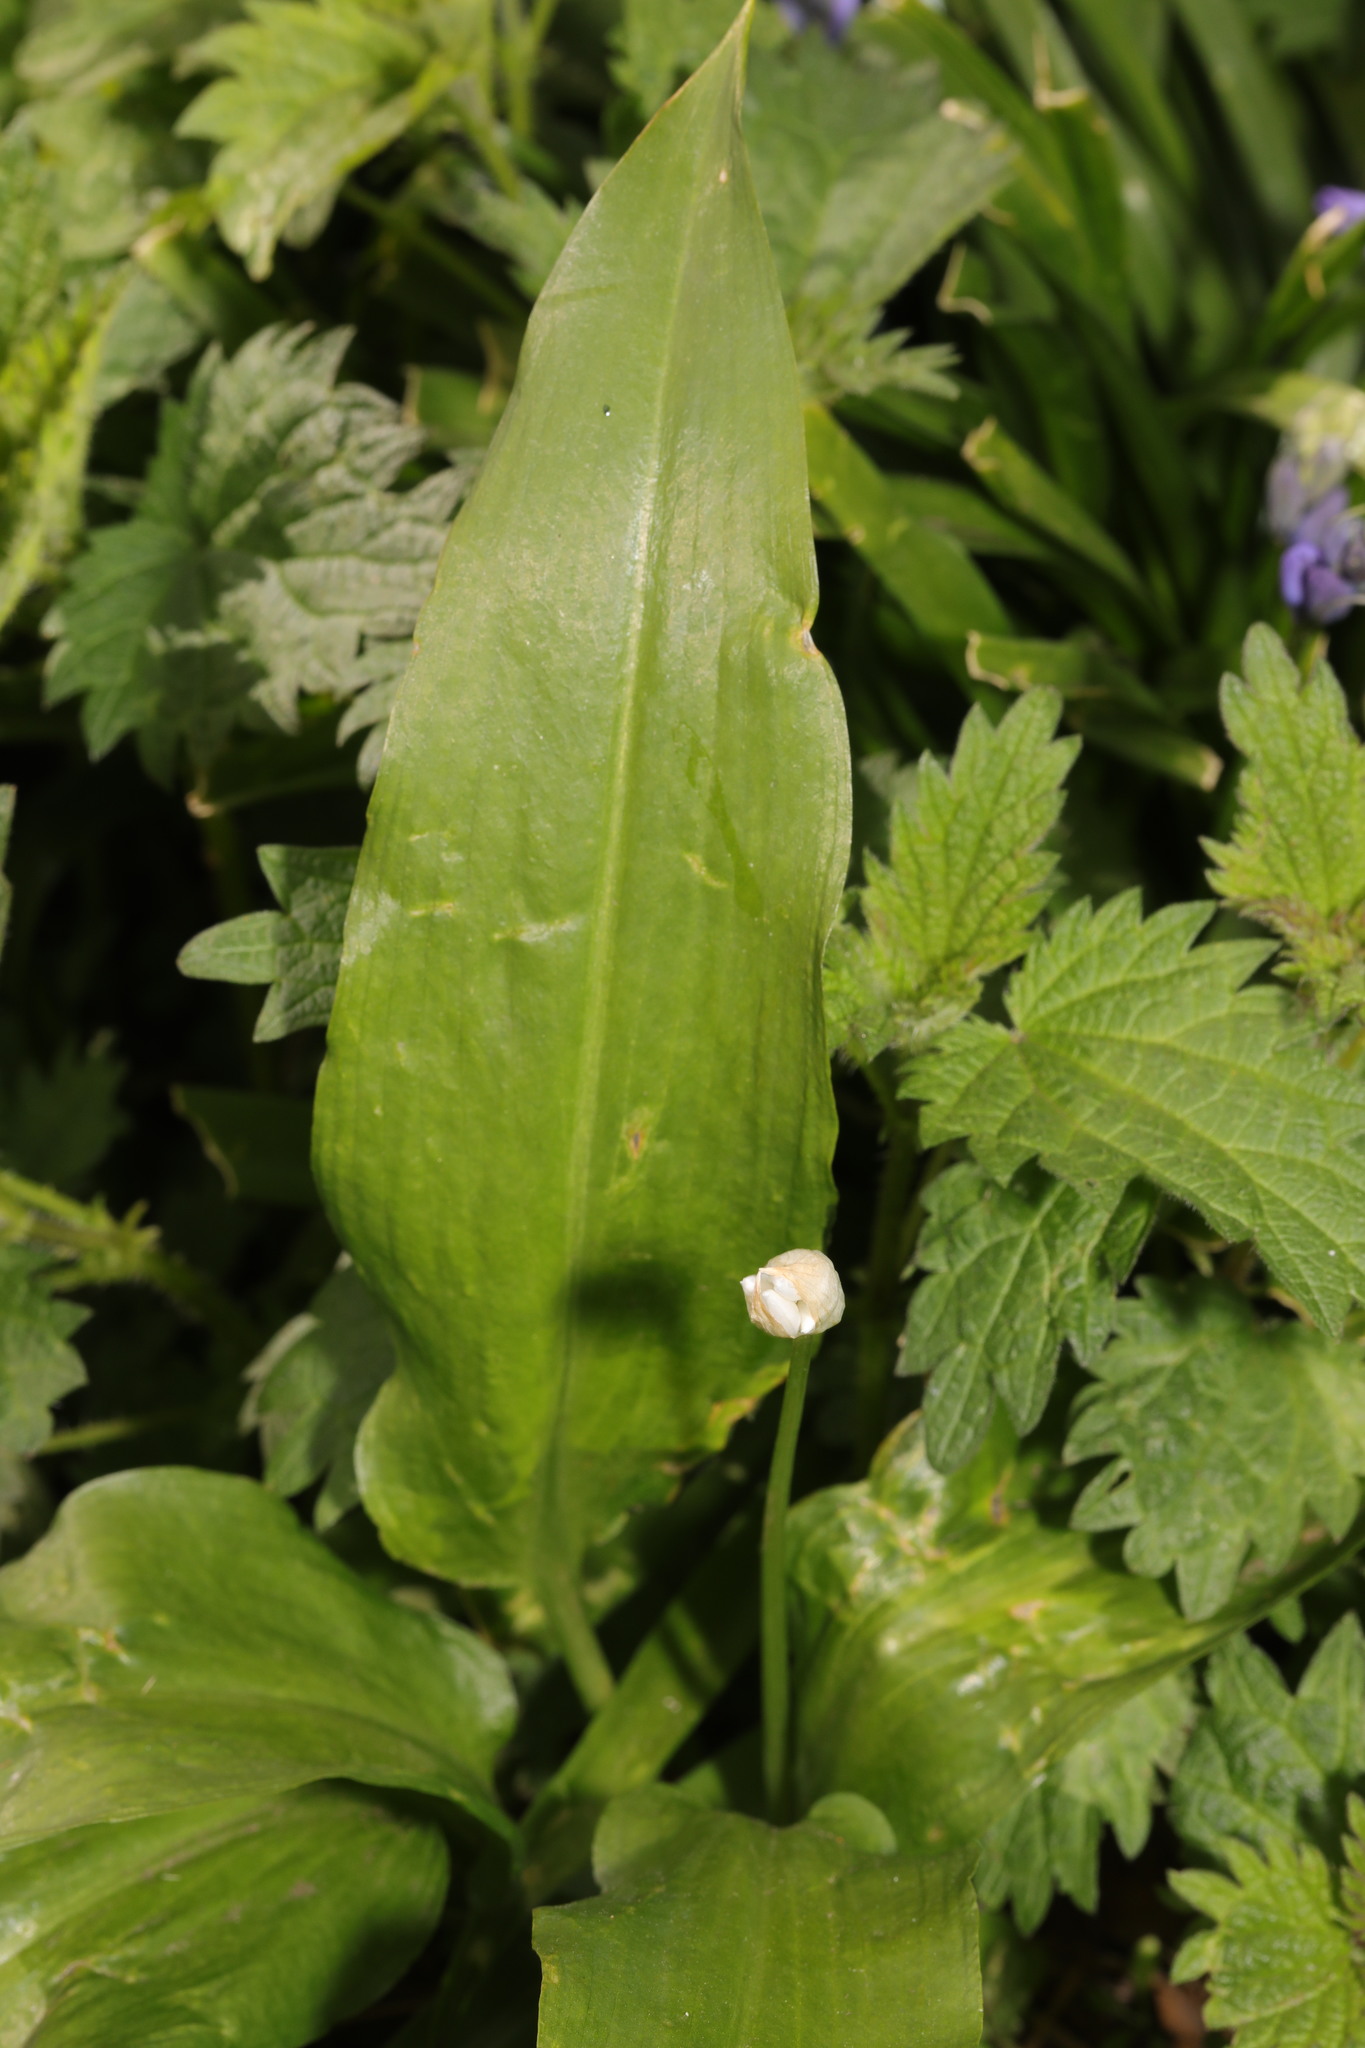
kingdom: Plantae
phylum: Tracheophyta
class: Liliopsida
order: Asparagales
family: Amaryllidaceae
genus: Allium
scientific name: Allium ursinum
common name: Ramsons
